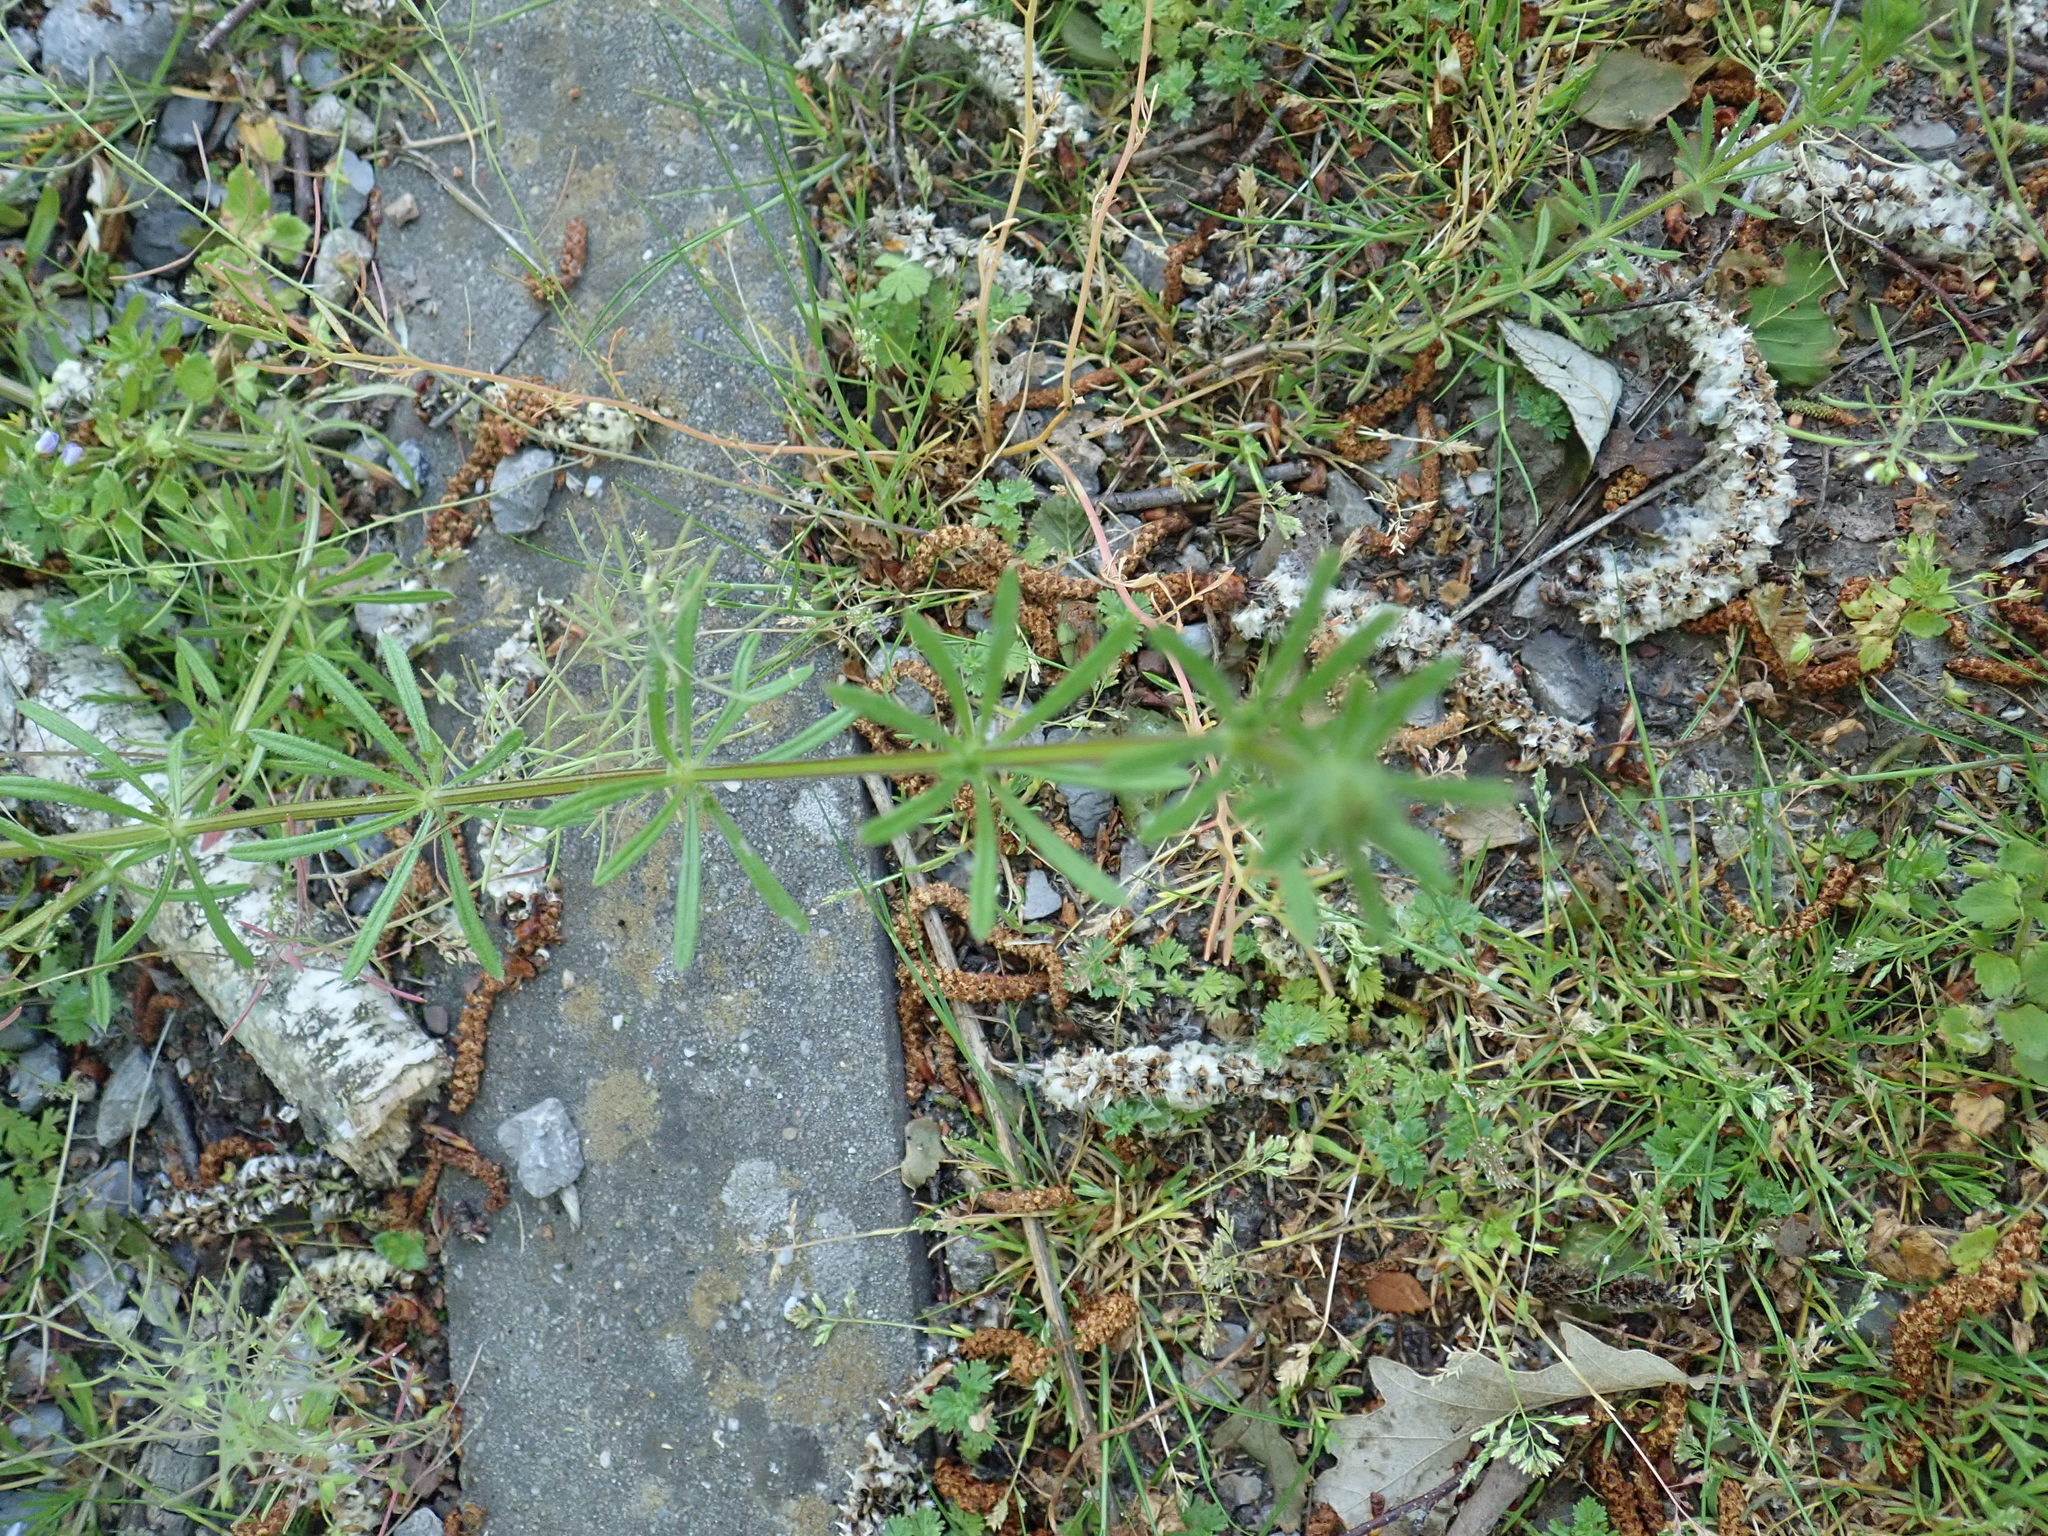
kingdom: Plantae
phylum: Tracheophyta
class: Magnoliopsida
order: Gentianales
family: Rubiaceae
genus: Galium
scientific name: Galium aparine
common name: Cleavers
